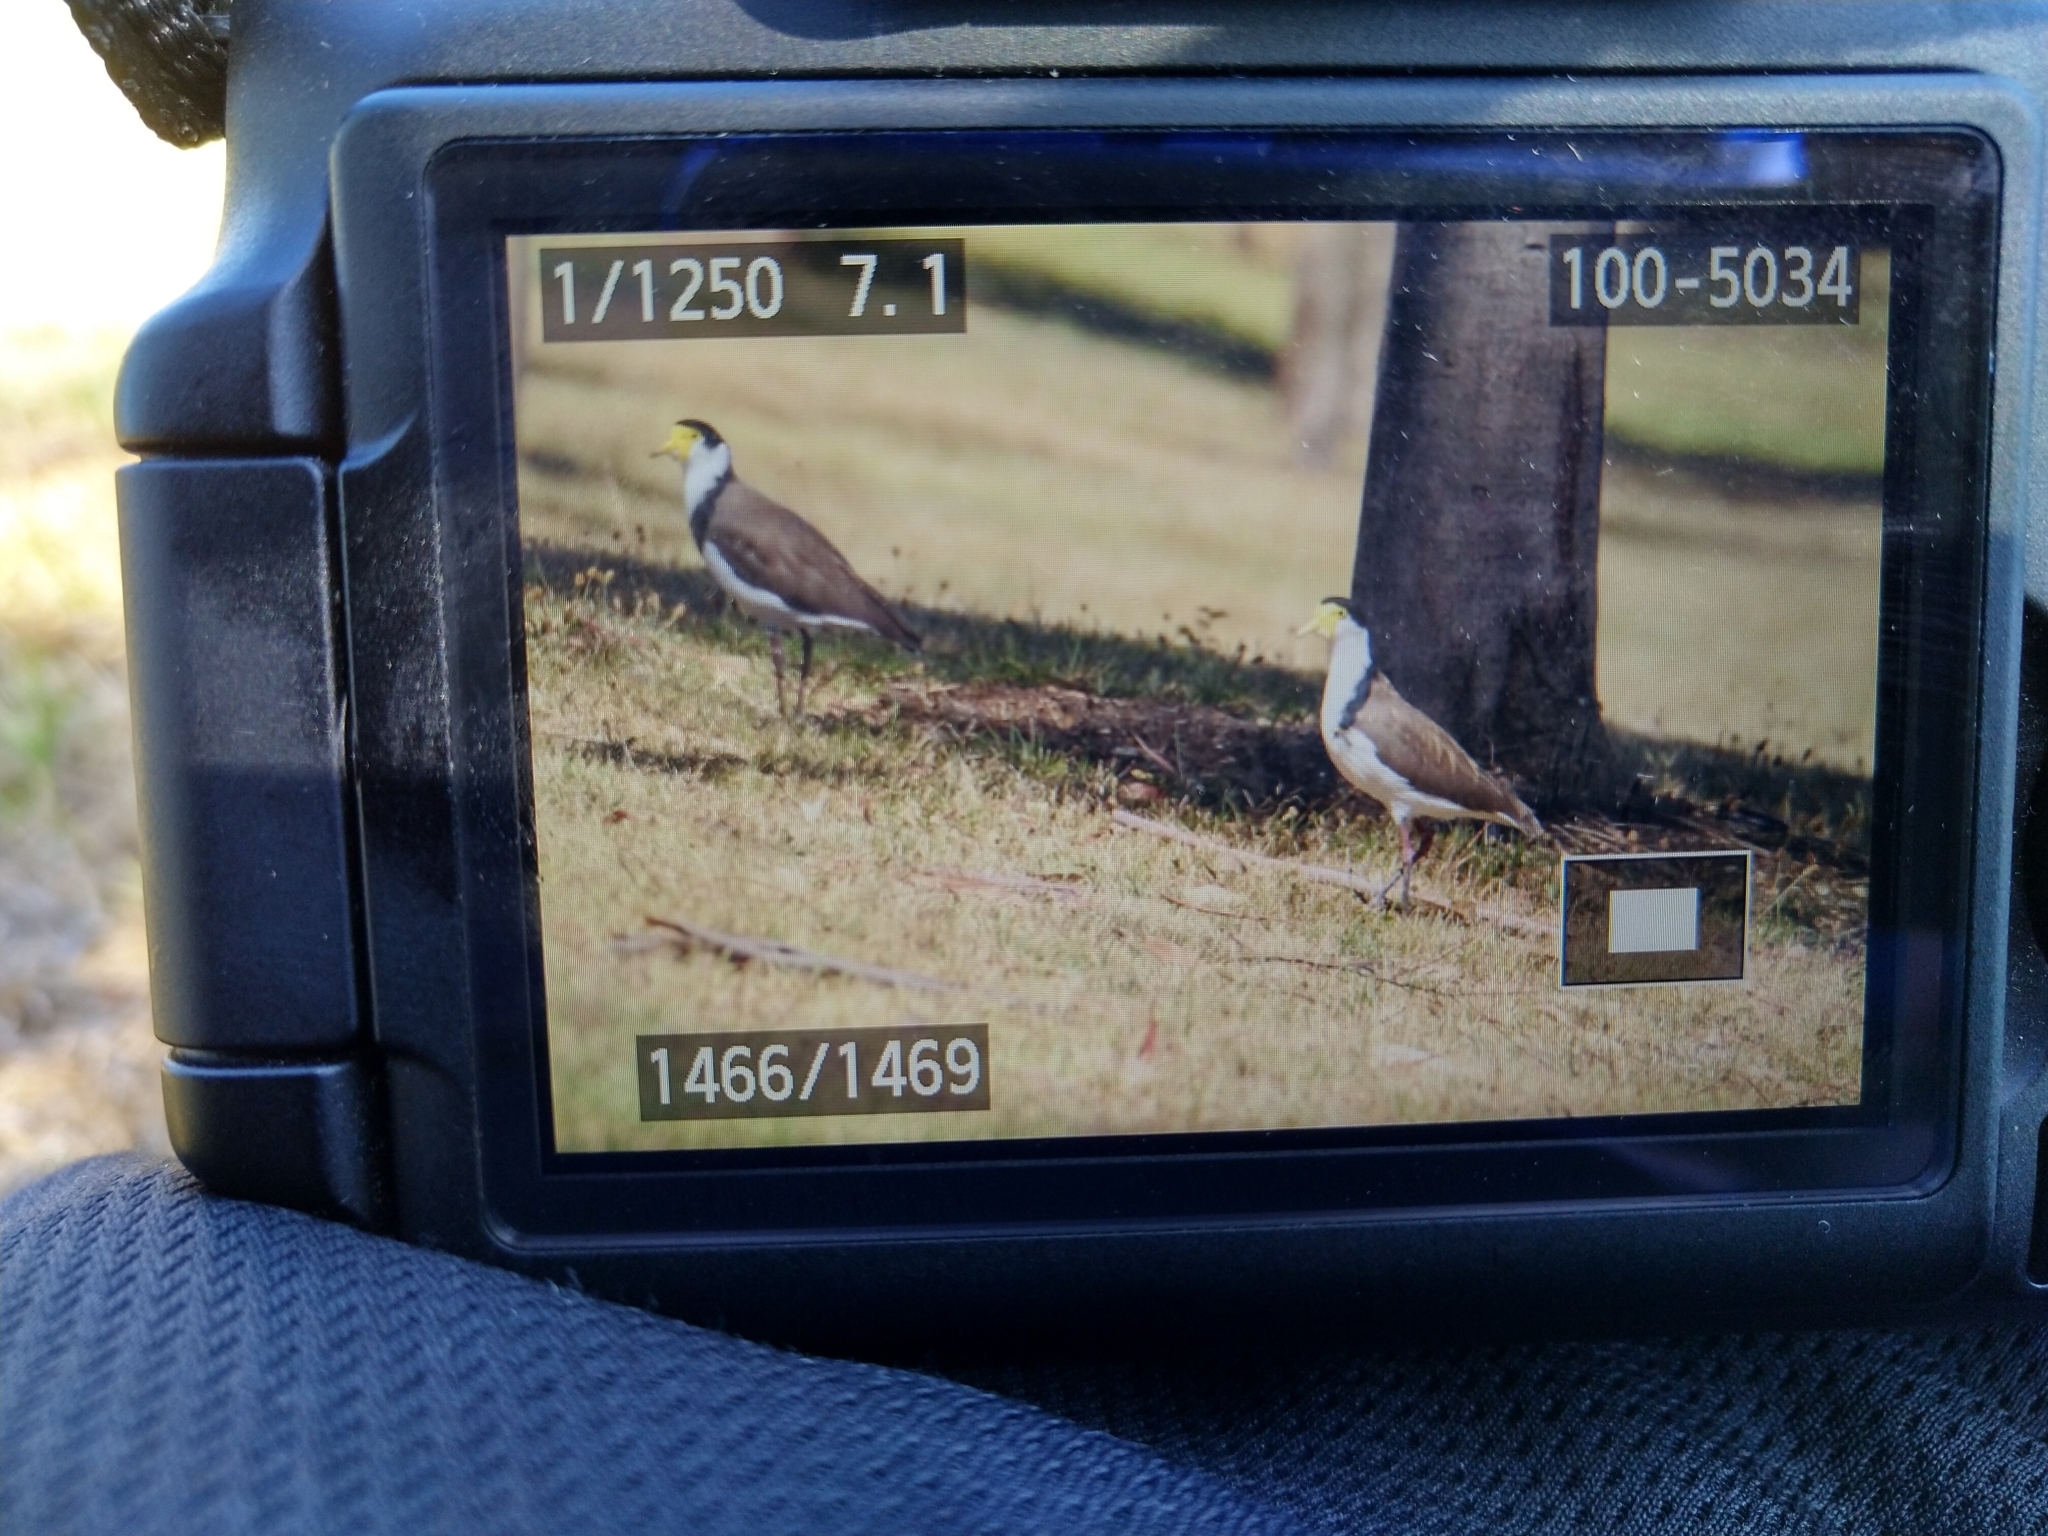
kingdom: Animalia
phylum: Chordata
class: Aves
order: Charadriiformes
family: Charadriidae
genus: Vanellus
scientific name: Vanellus miles
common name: Masked lapwing
